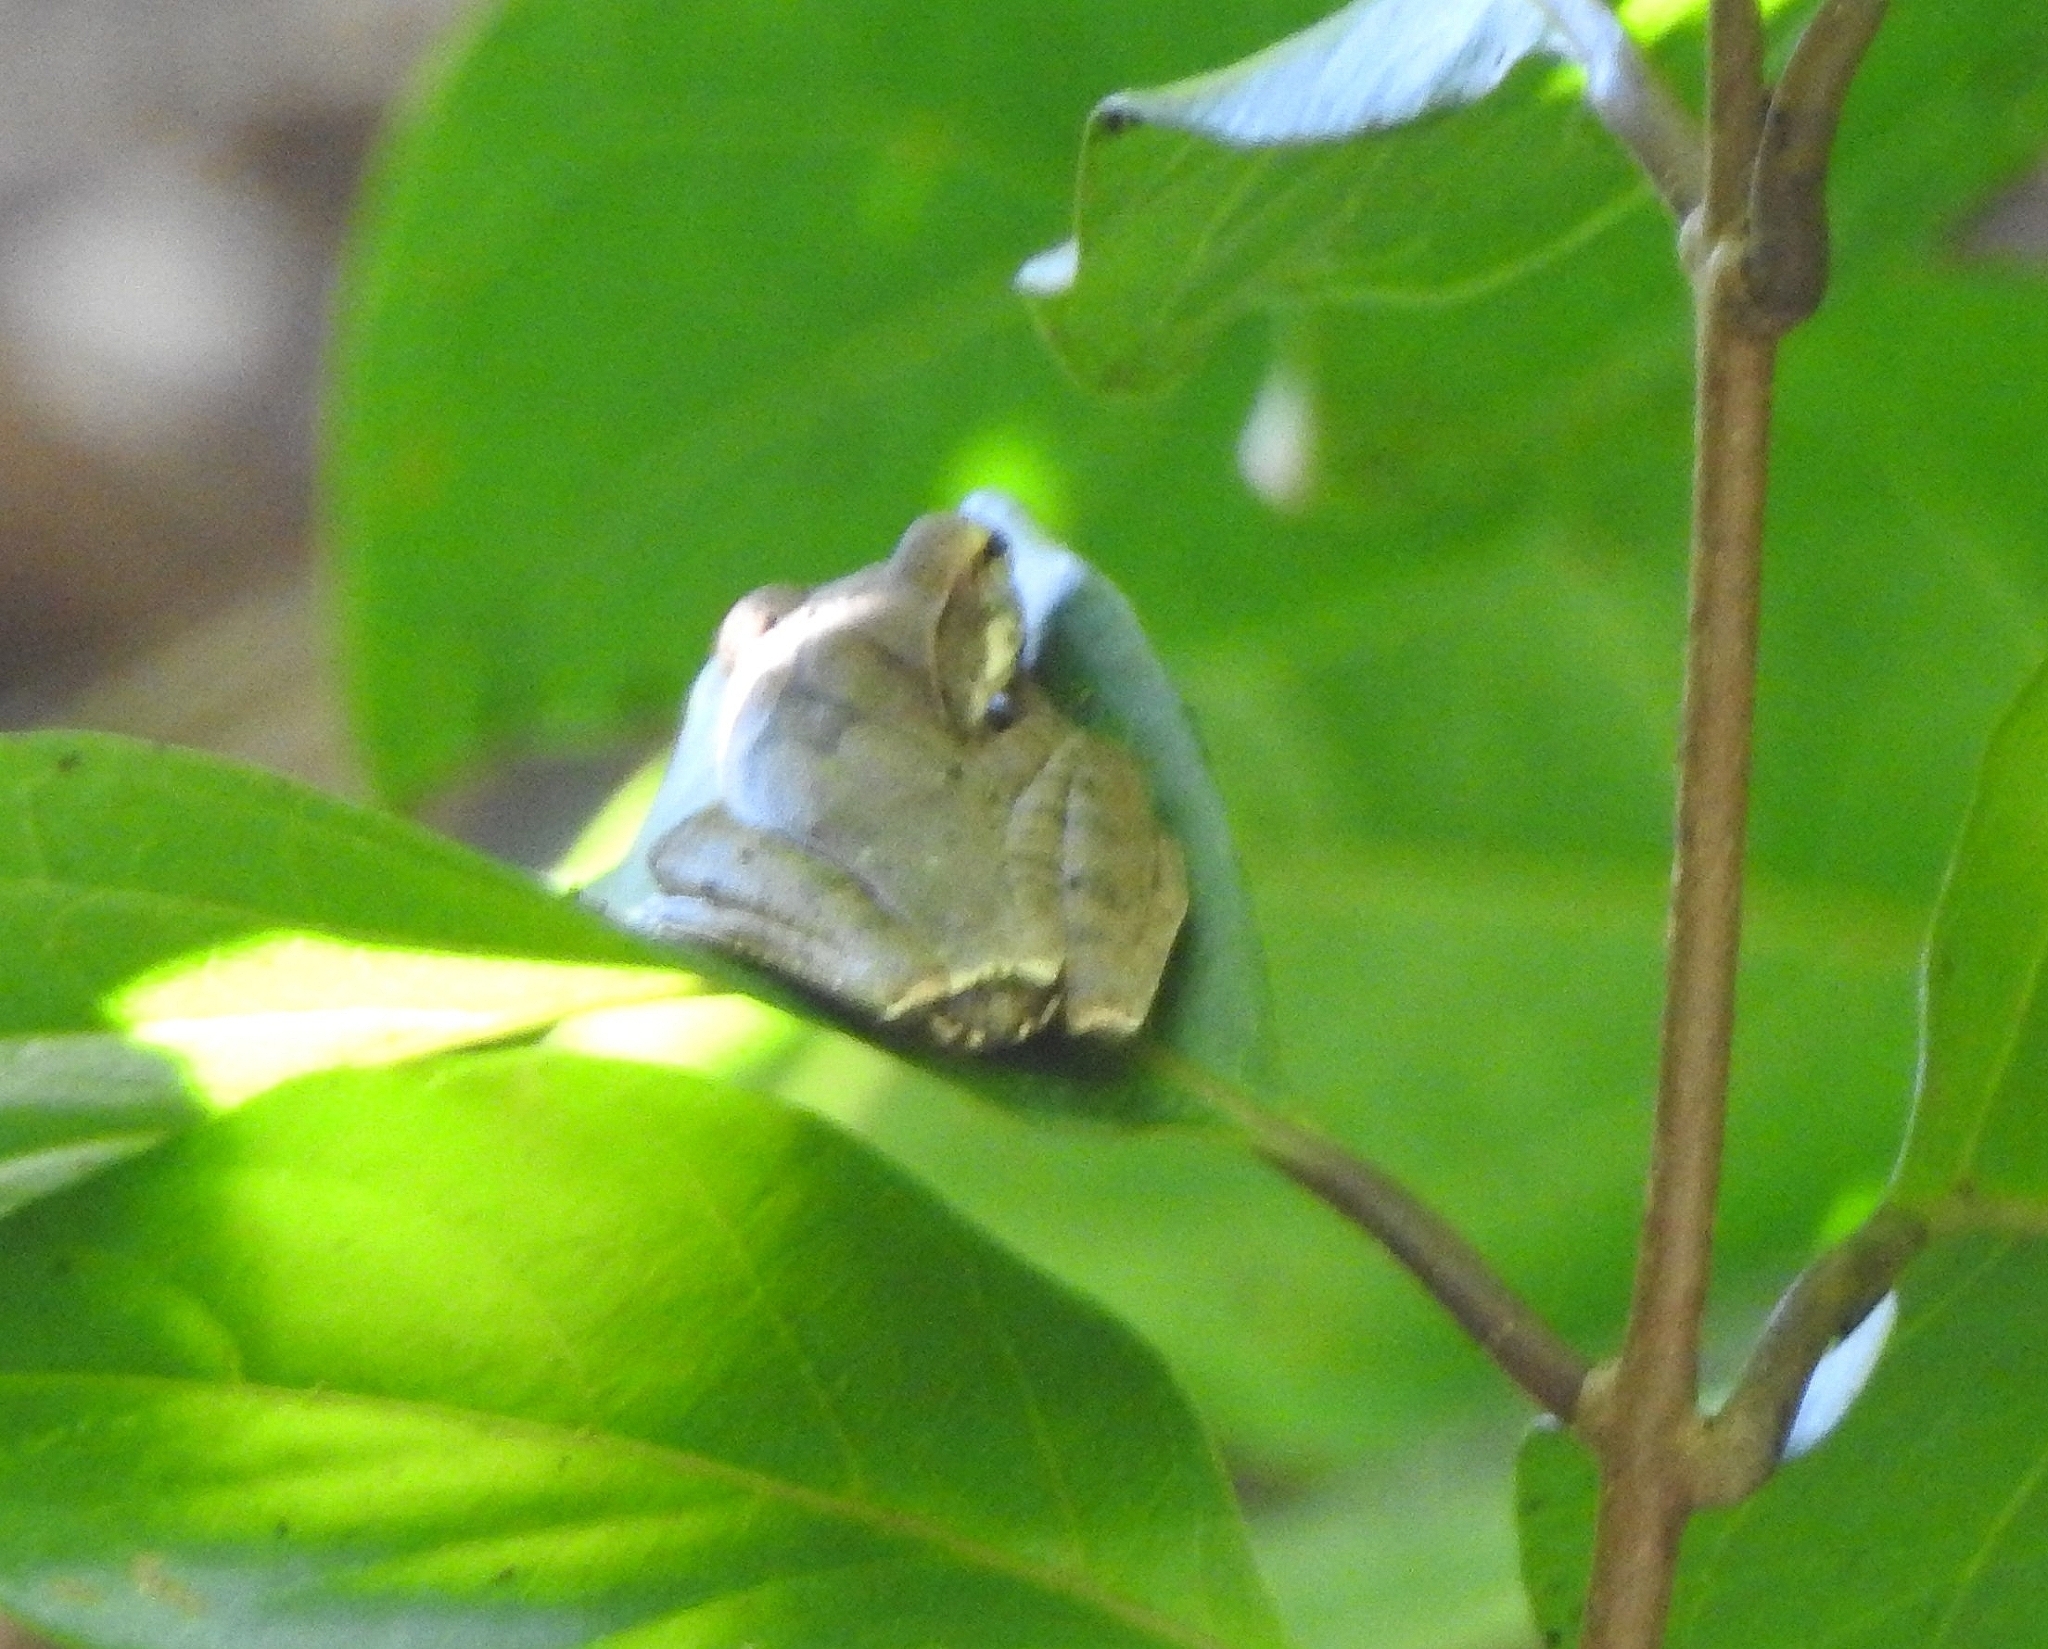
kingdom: Animalia
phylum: Chordata
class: Amphibia
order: Anura
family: Rhacophoridae
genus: Polypedates
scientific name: Polypedates occidentalis
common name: Charpa tree frog
